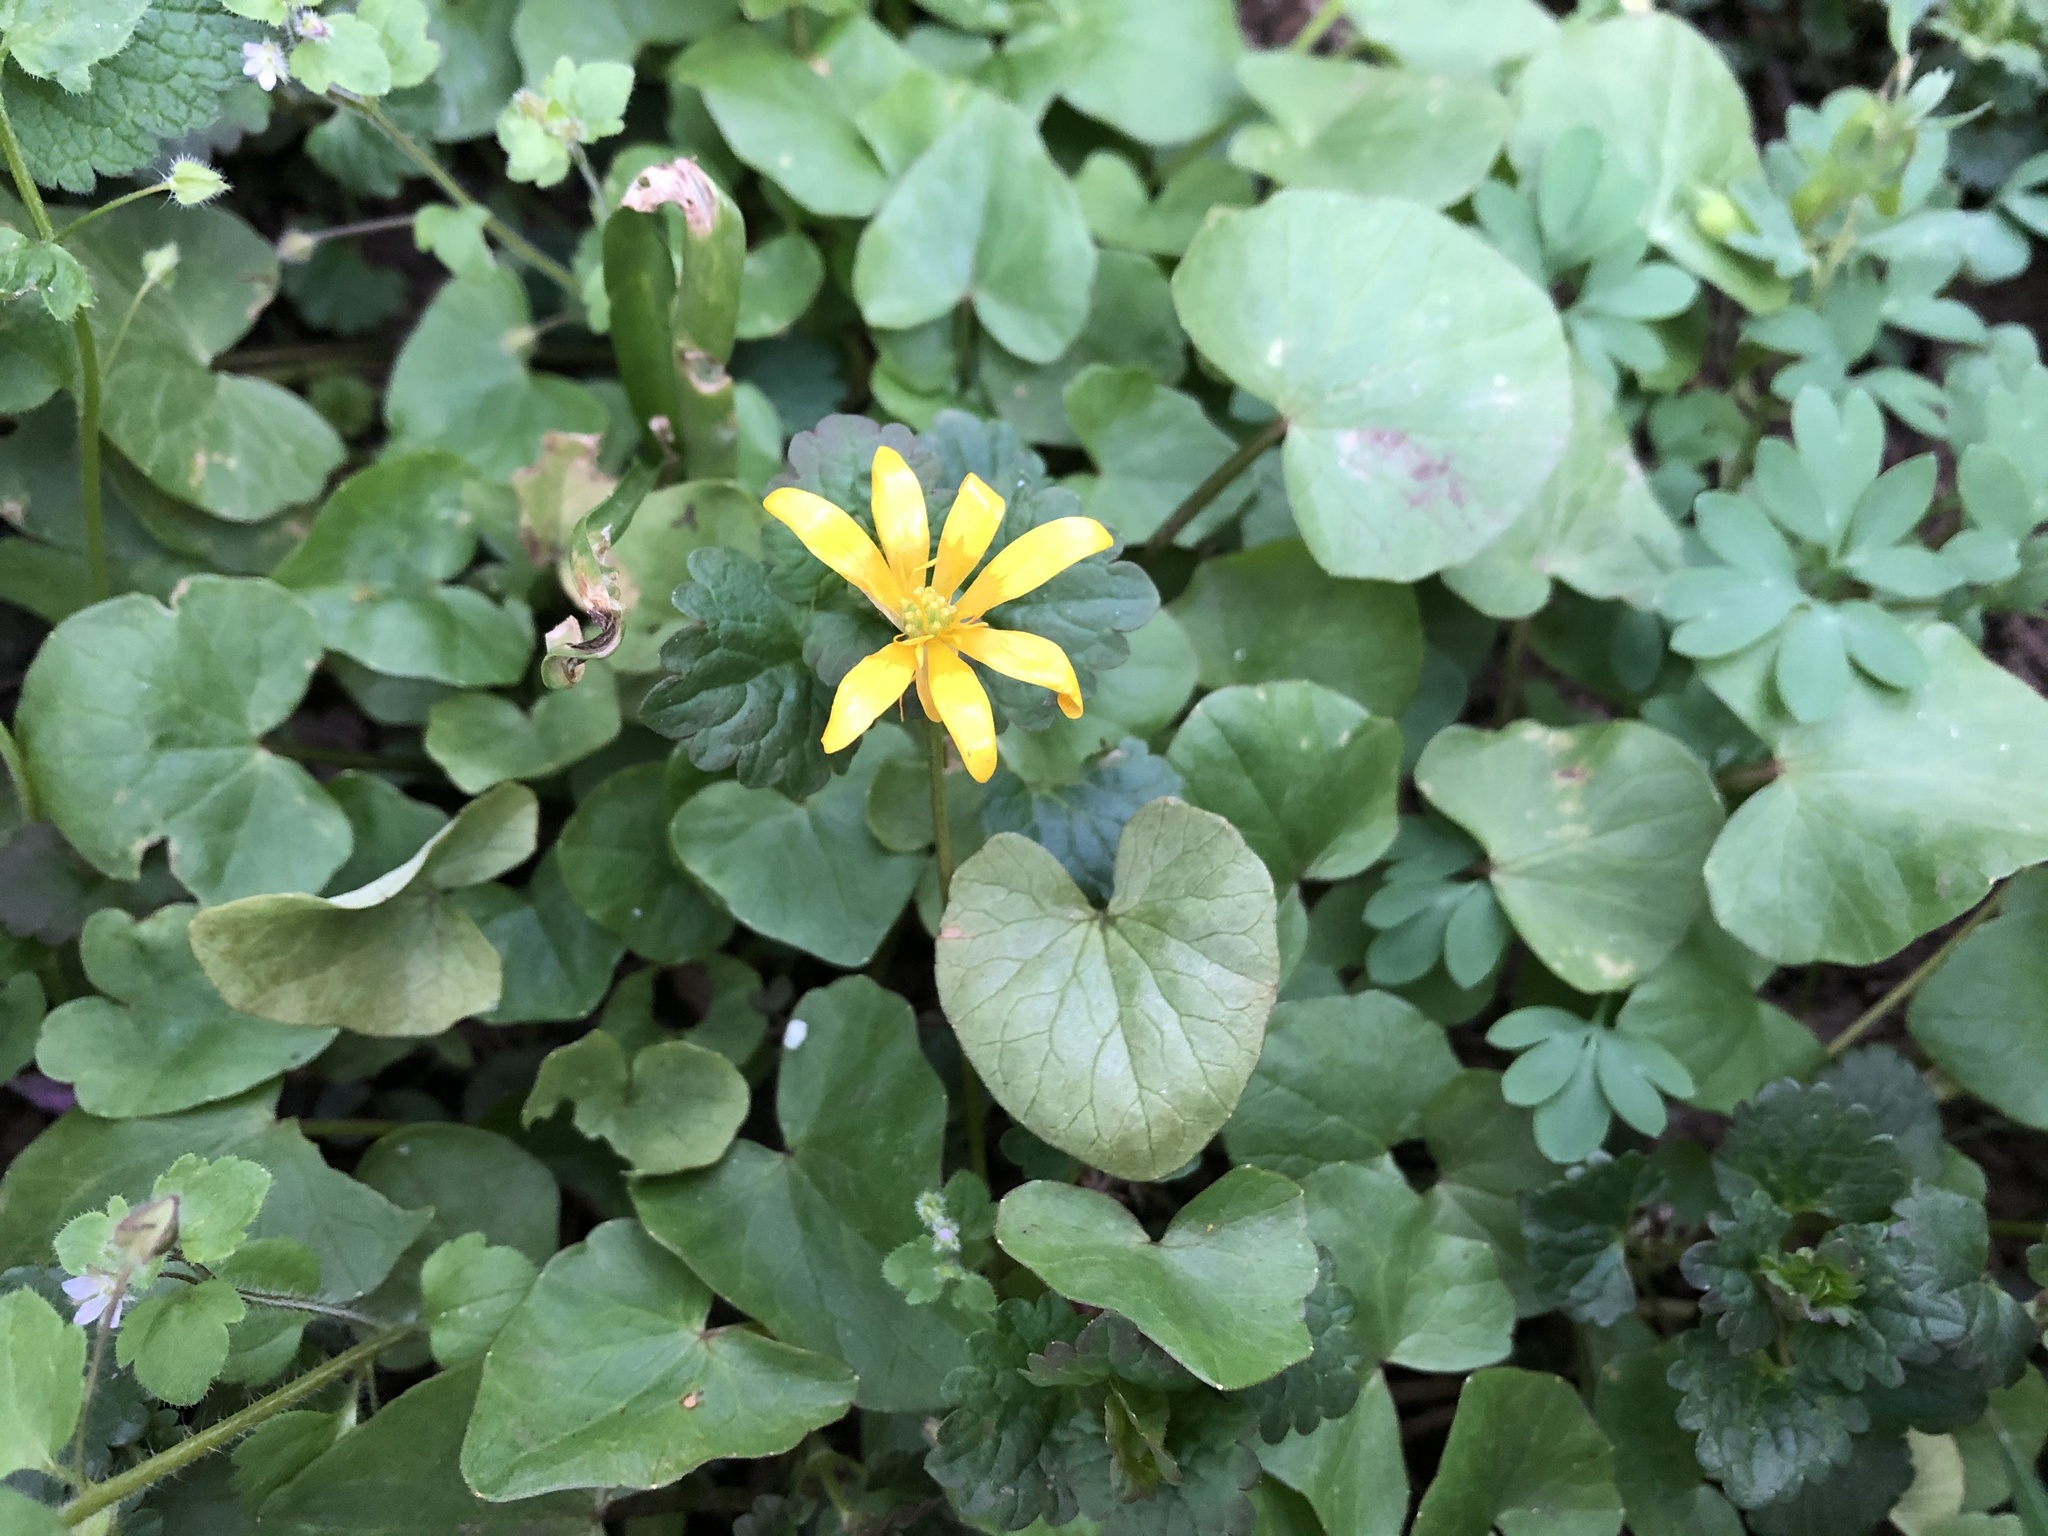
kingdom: Plantae
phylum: Tracheophyta
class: Magnoliopsida
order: Ranunculales
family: Ranunculaceae
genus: Ficaria
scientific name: Ficaria verna
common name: Lesser celandine
